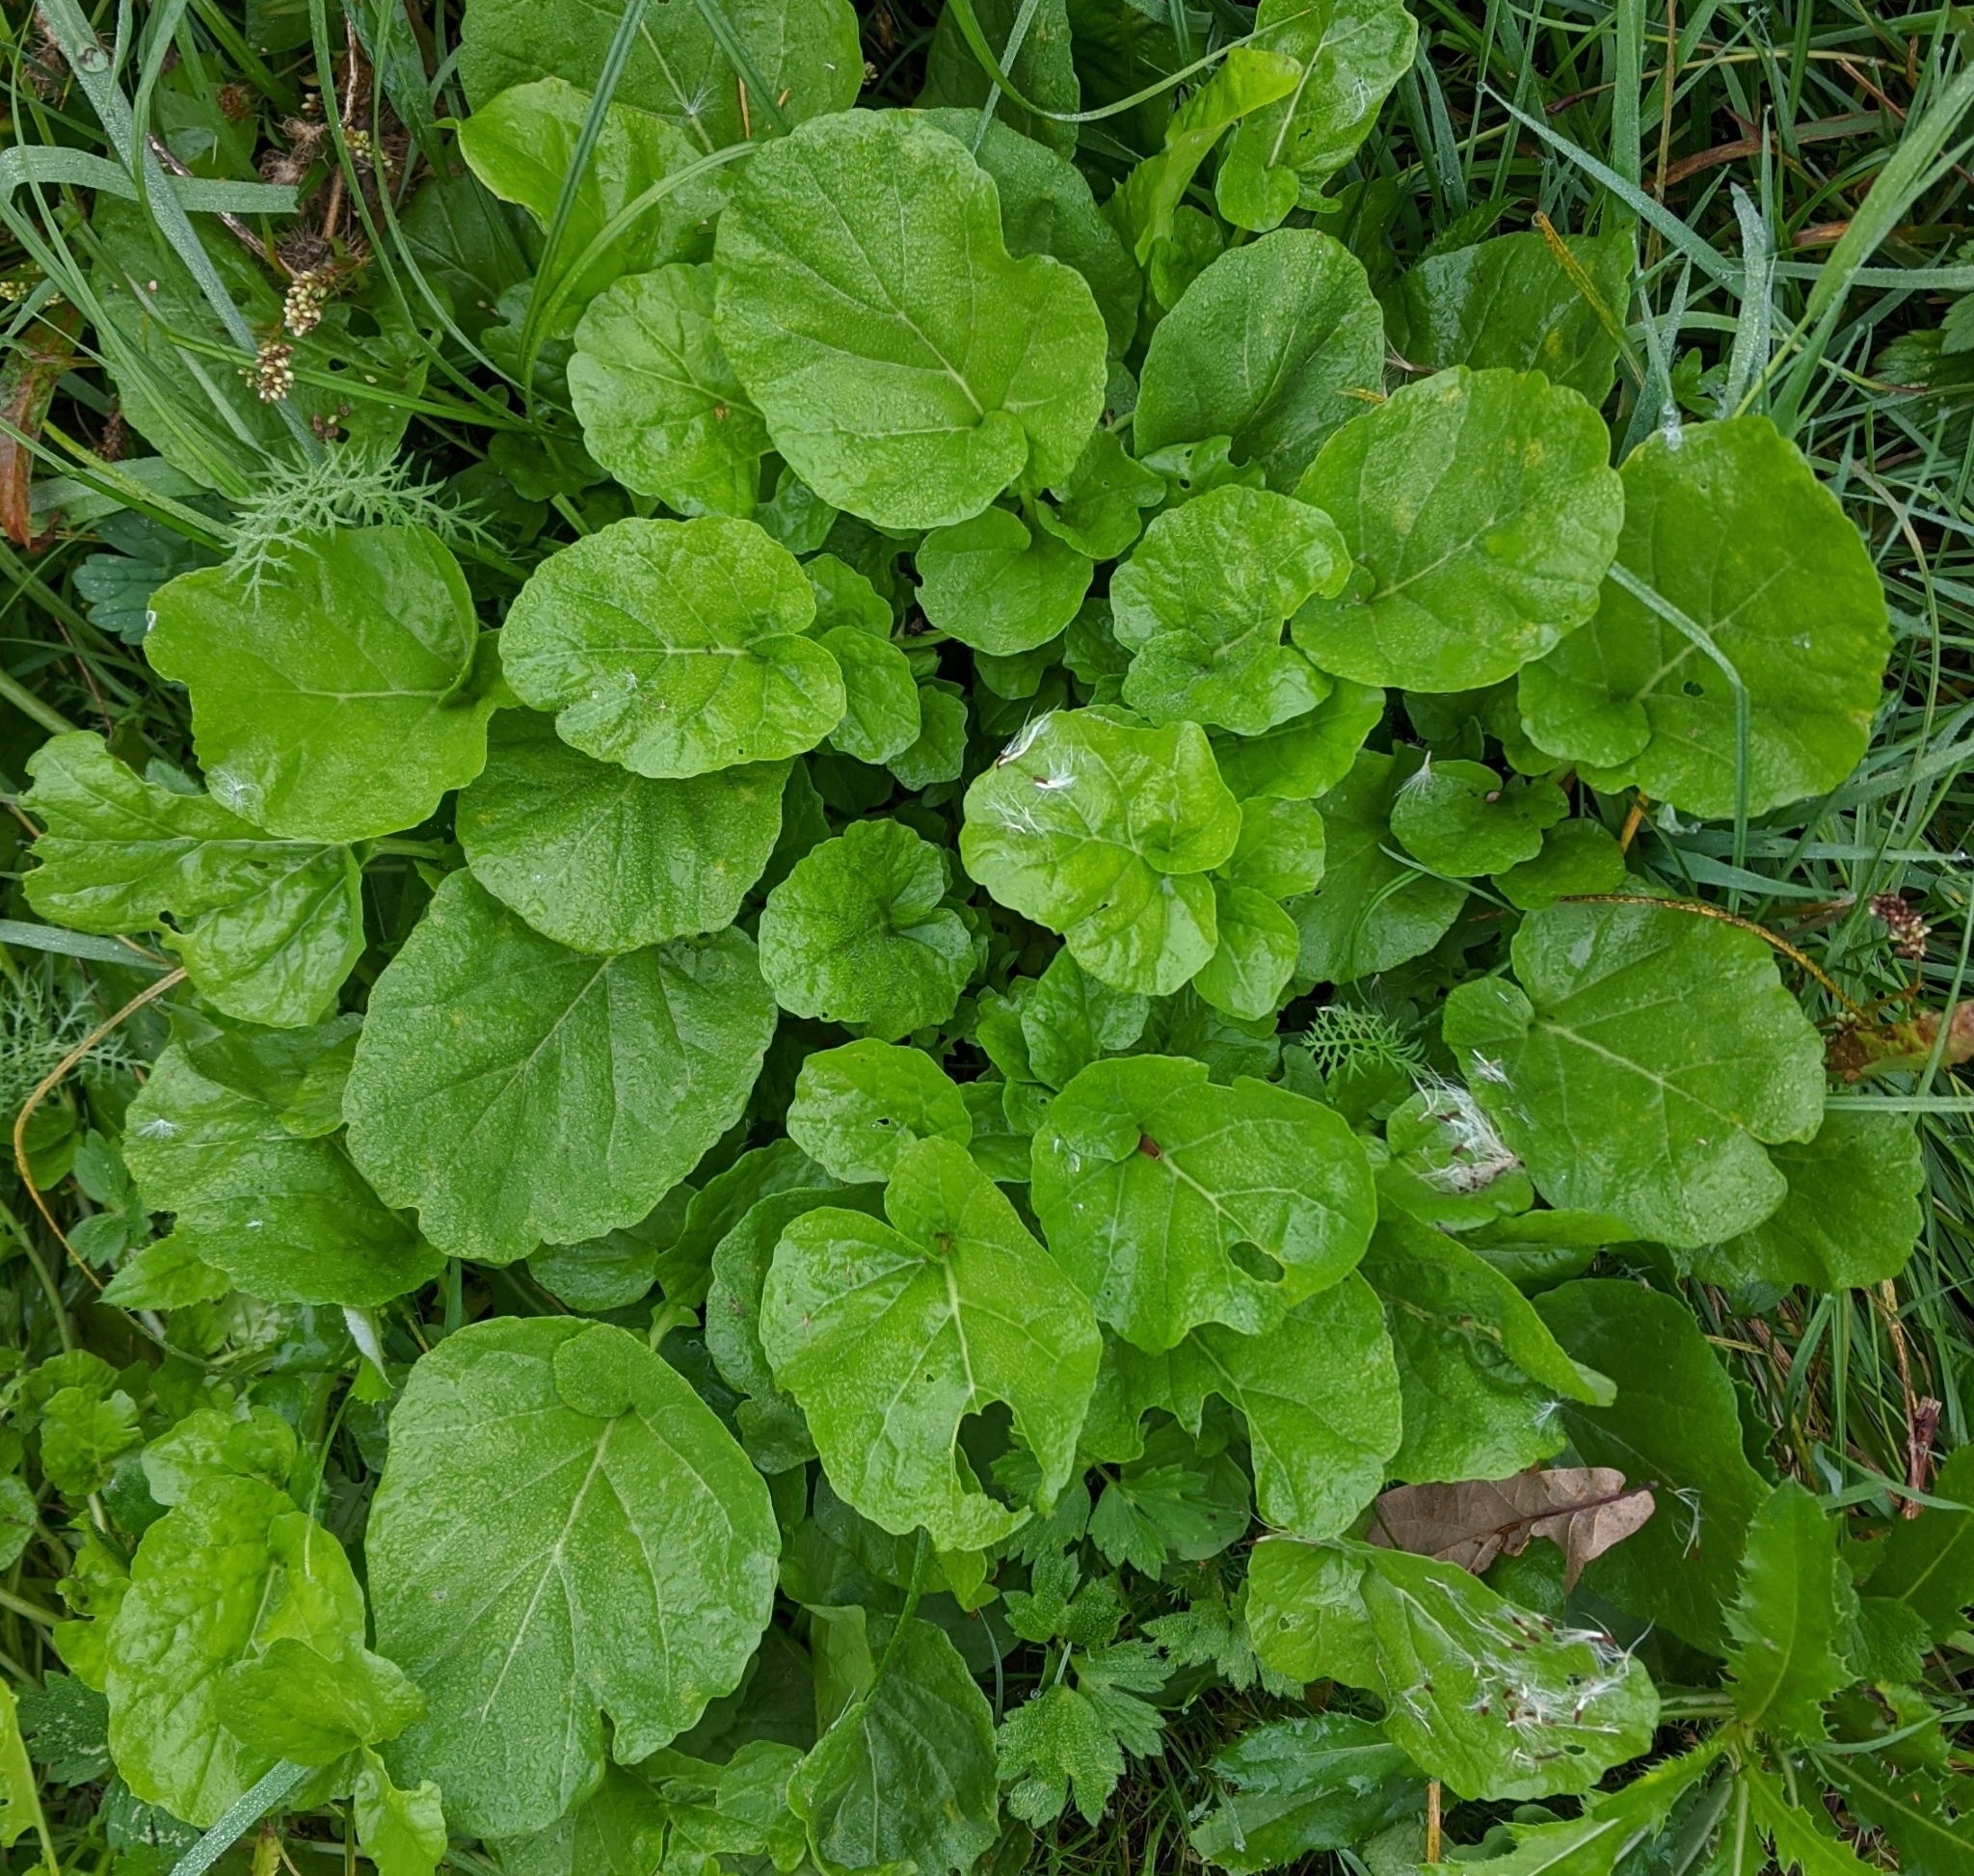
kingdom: Plantae
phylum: Tracheophyta
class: Magnoliopsida
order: Brassicales
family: Brassicaceae
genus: Barbarea
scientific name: Barbarea vulgaris
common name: Cressy-greens
